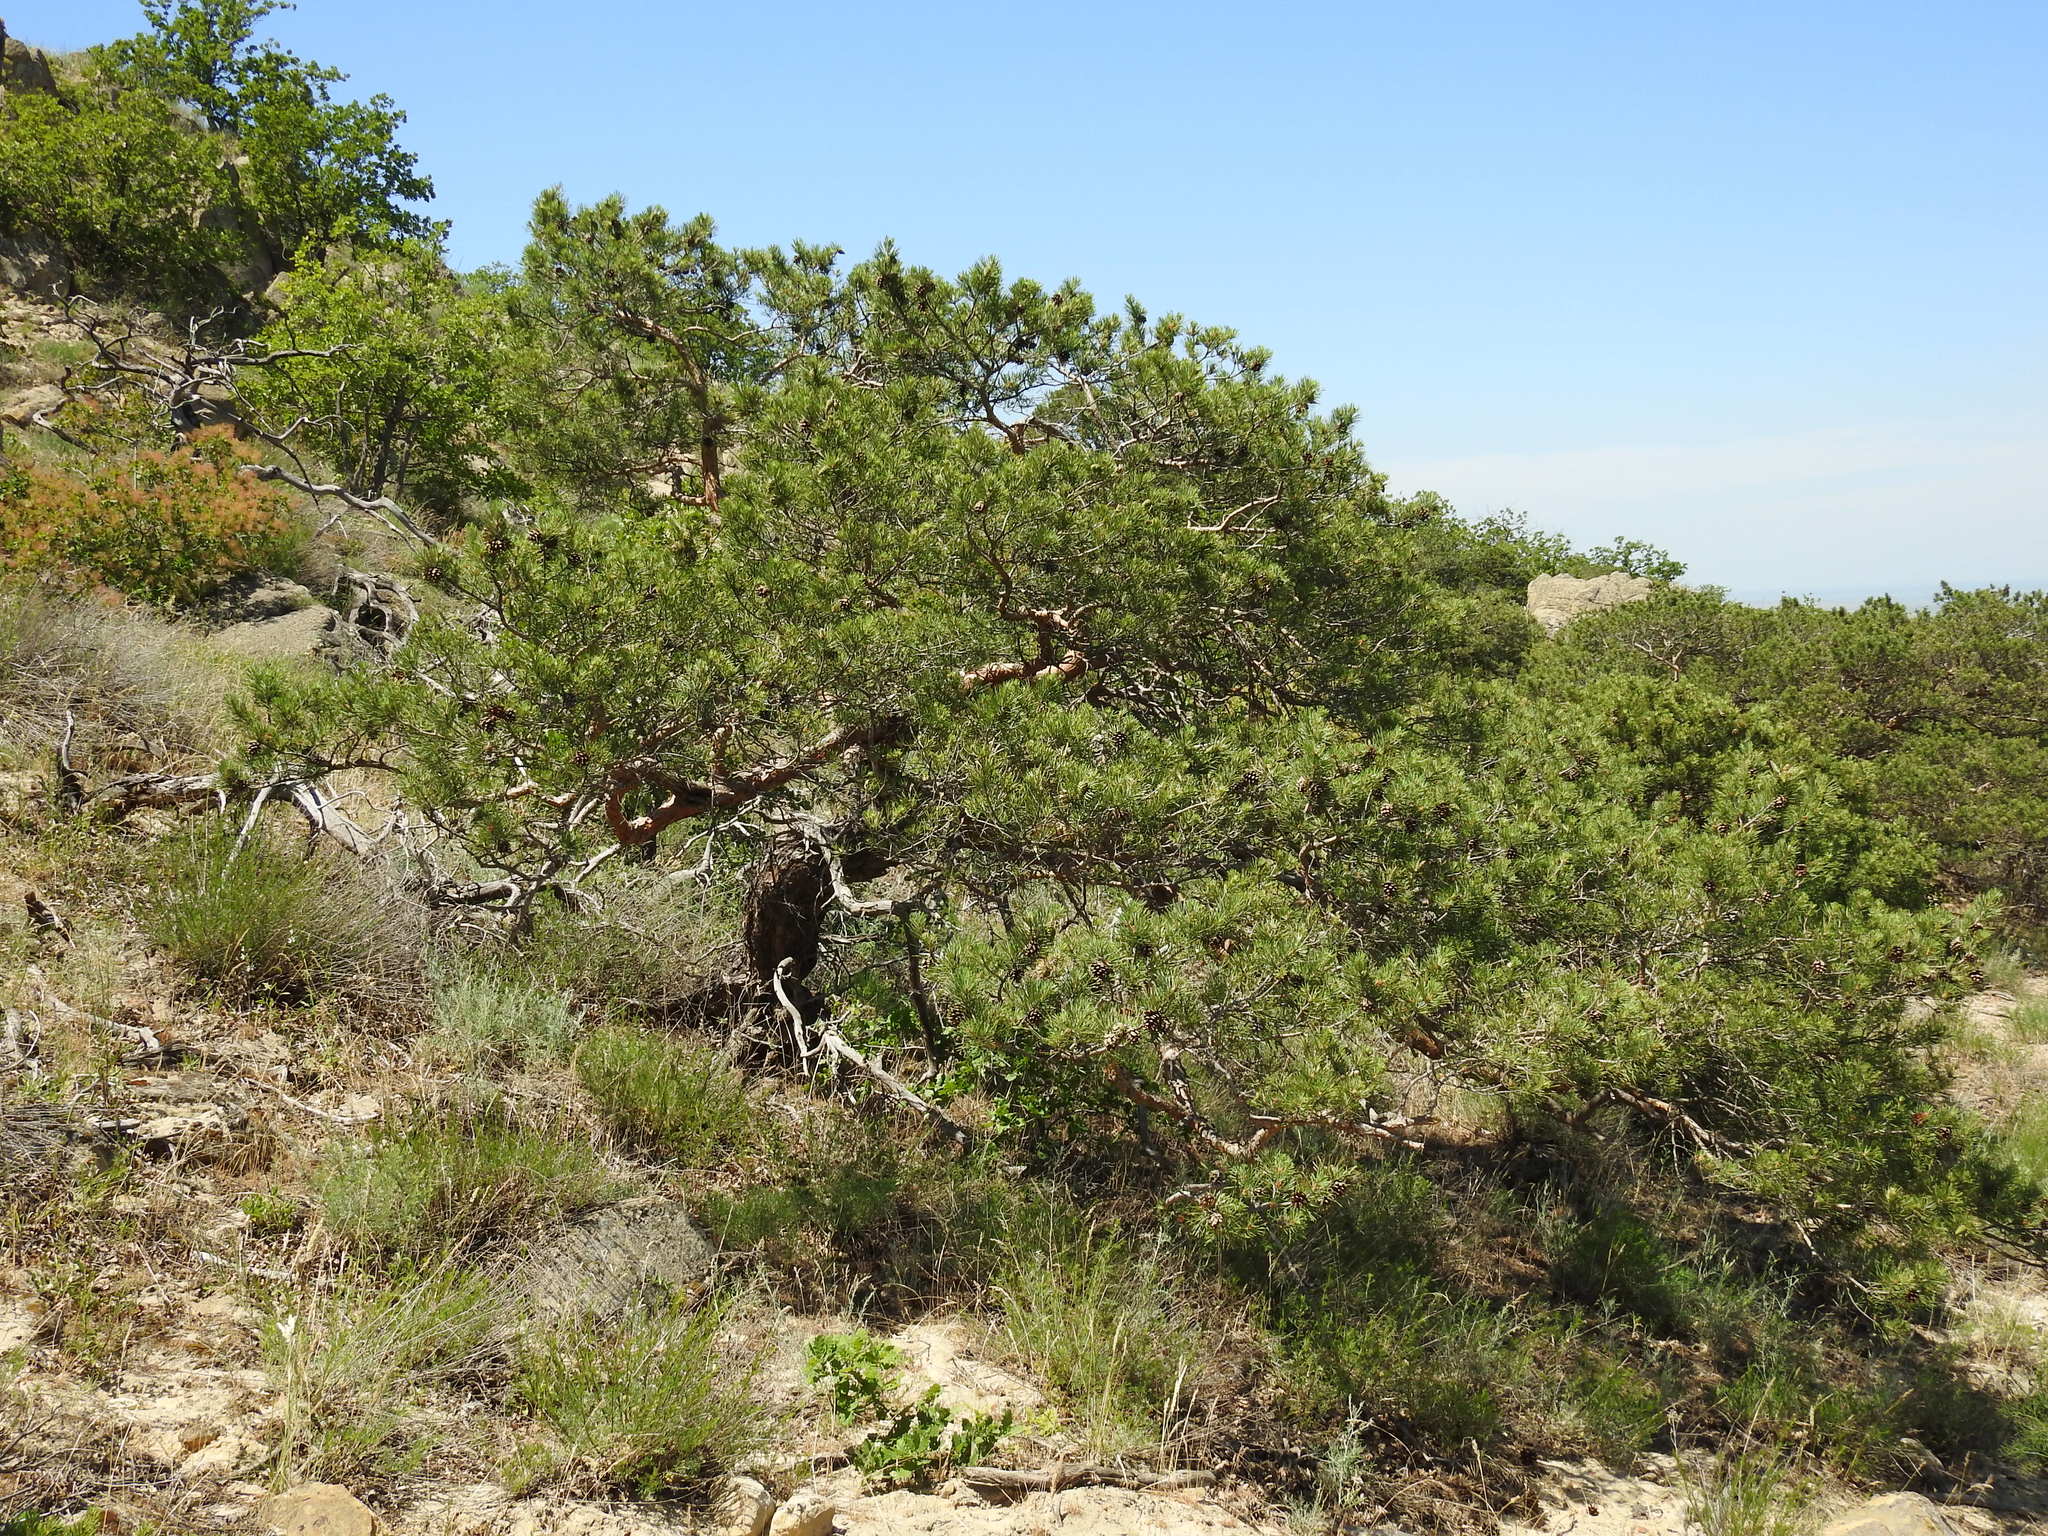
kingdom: Plantae
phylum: Tracheophyta
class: Pinopsida
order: Pinales
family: Pinaceae
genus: Pinus
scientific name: Pinus sylvestris
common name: Scots pine
